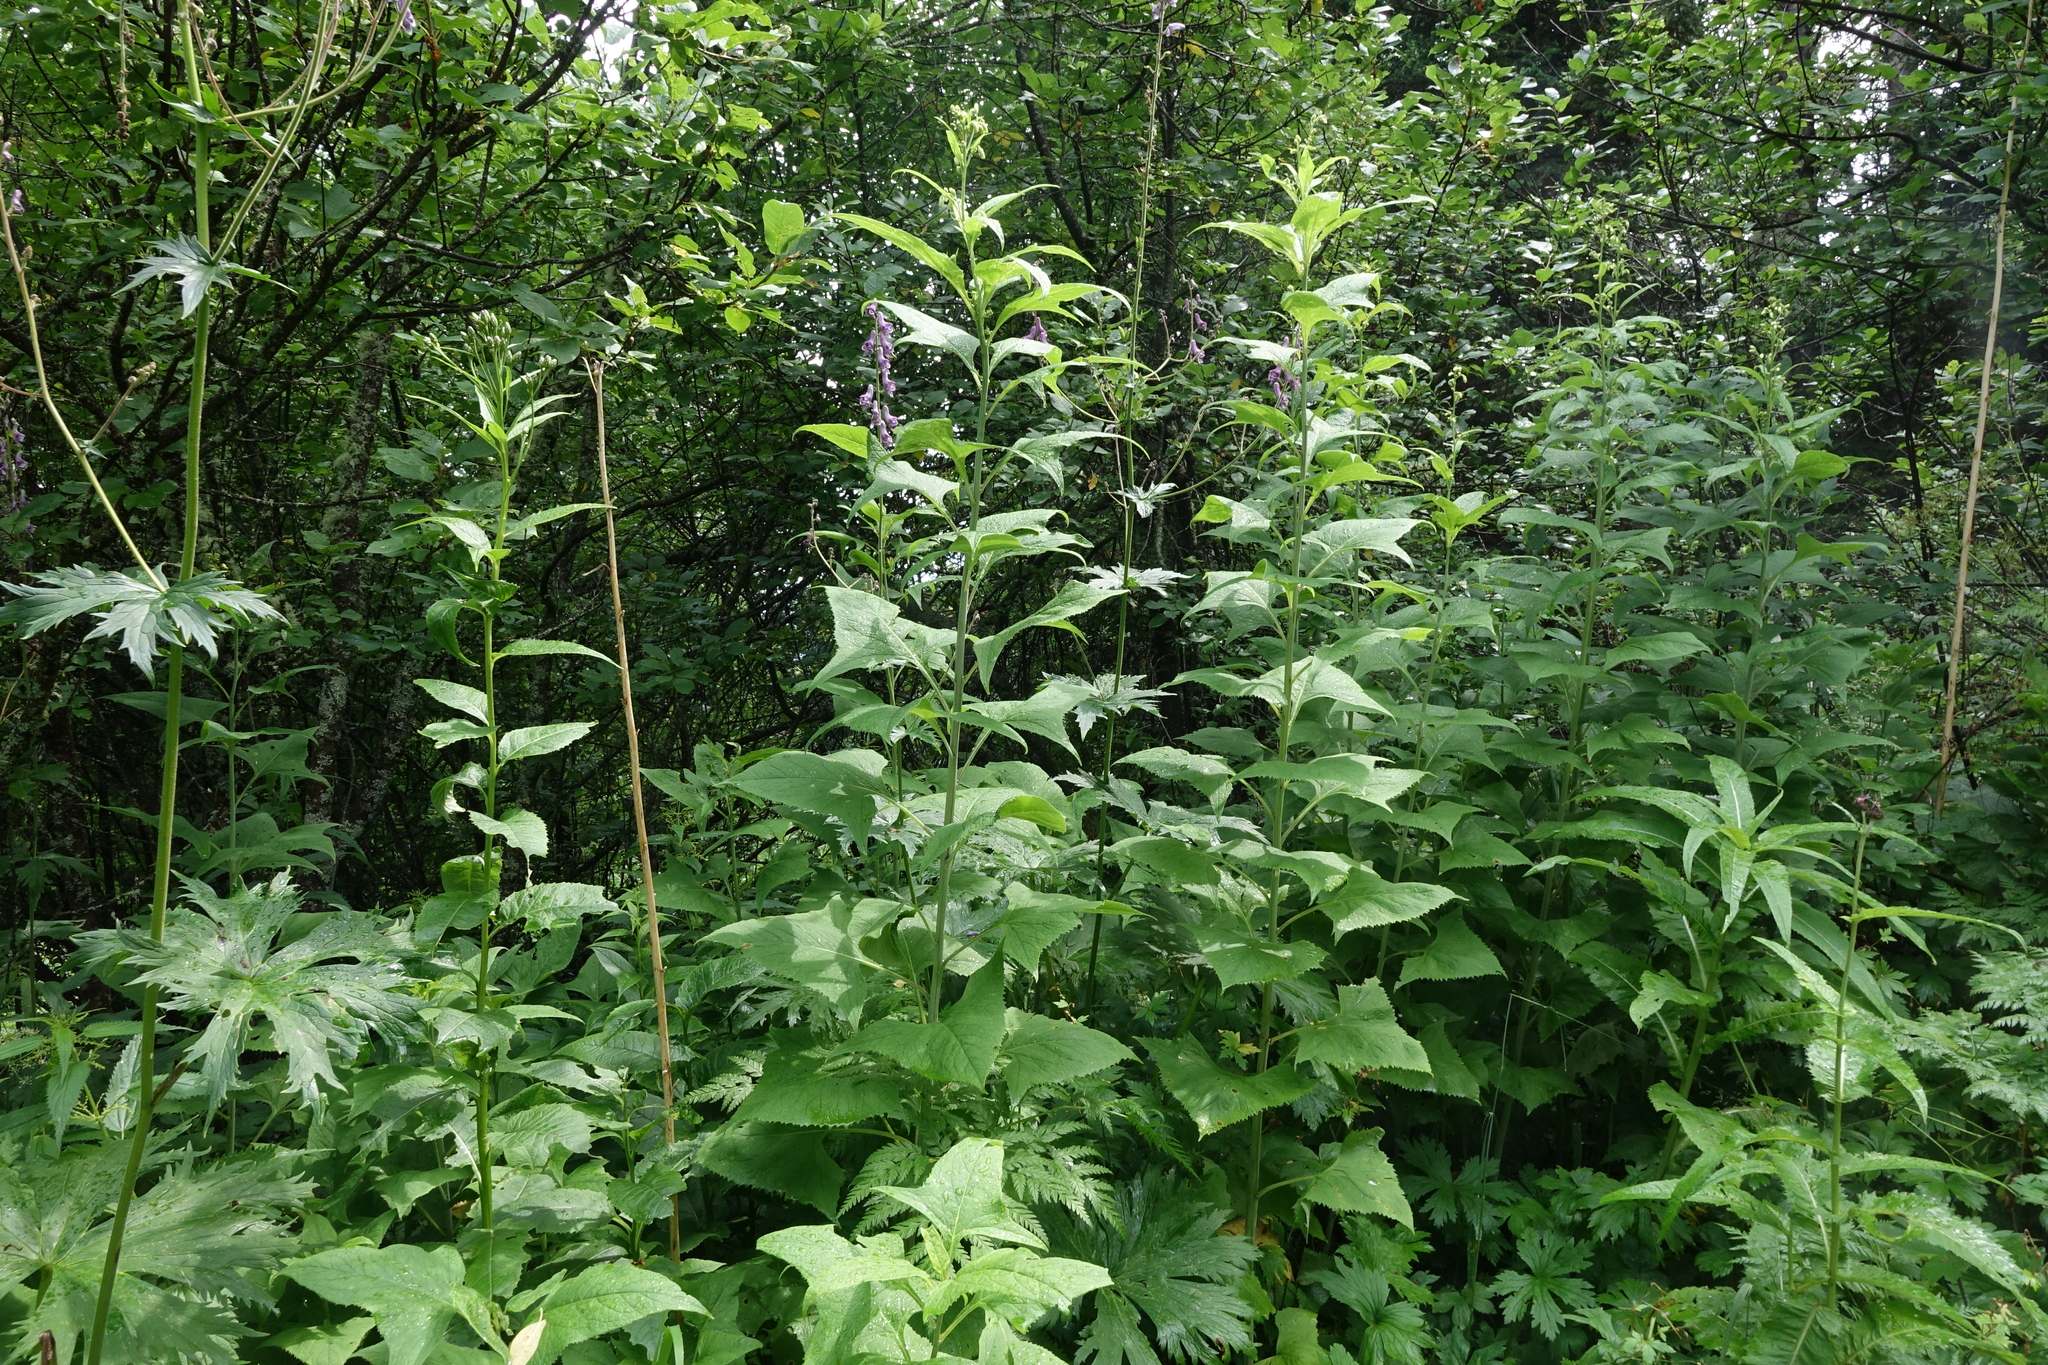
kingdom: Plantae
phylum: Tracheophyta
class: Magnoliopsida
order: Asterales
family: Asteraceae
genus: Parasenecio
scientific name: Parasenecio hastatus
